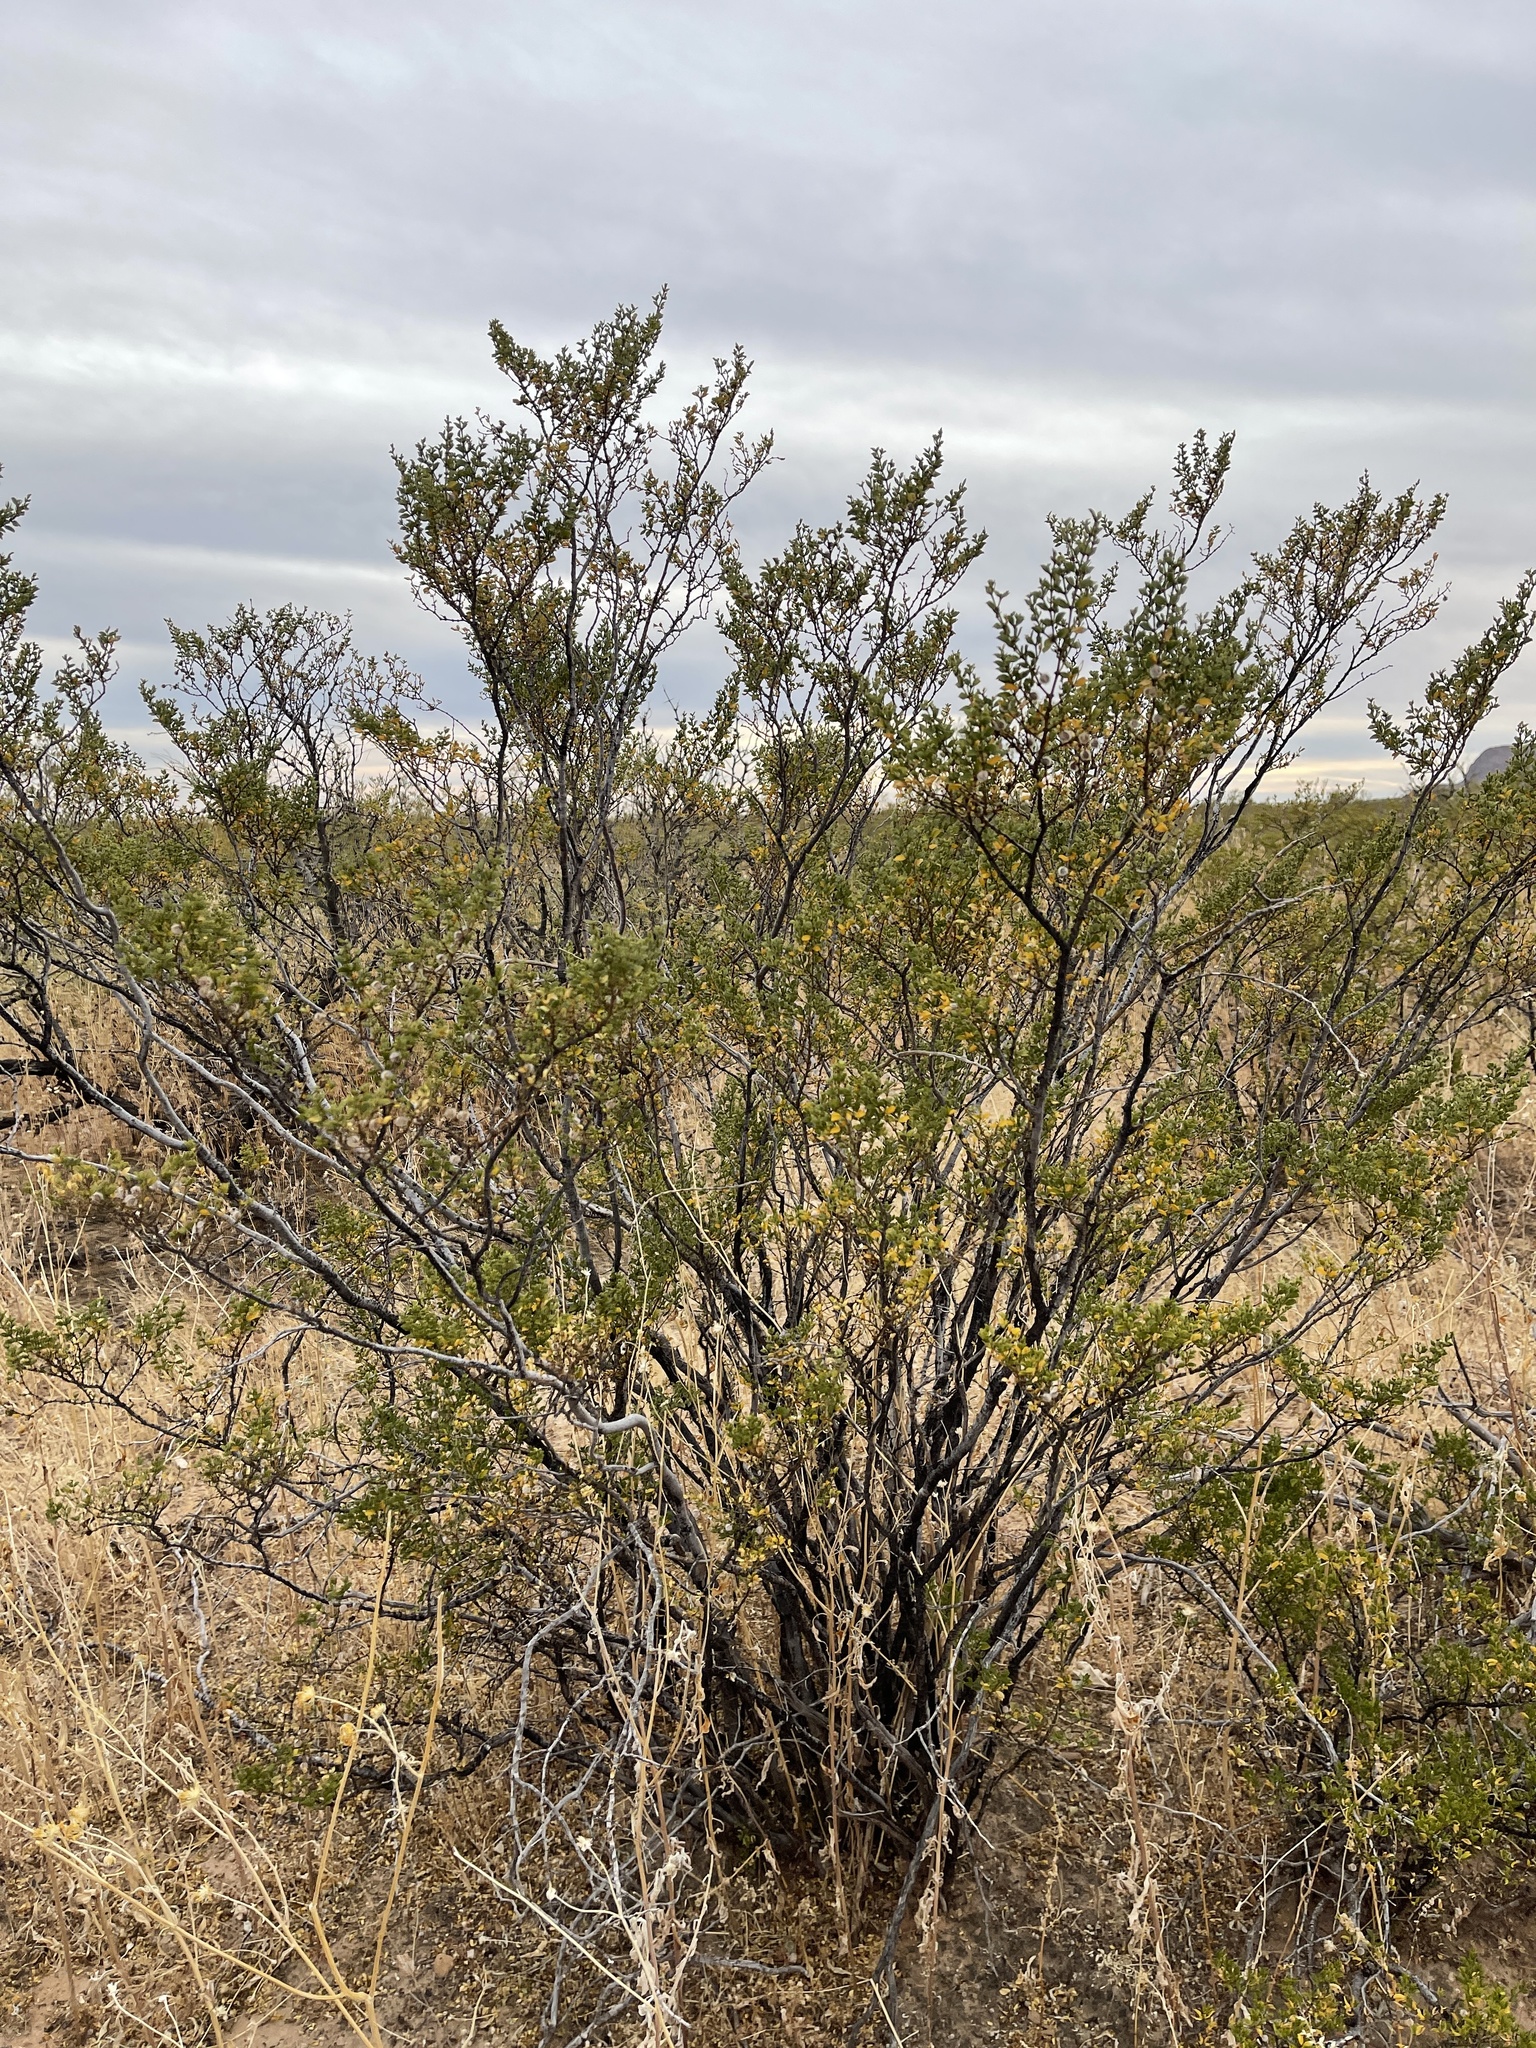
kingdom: Plantae
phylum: Tracheophyta
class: Magnoliopsida
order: Zygophyllales
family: Zygophyllaceae
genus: Larrea
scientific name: Larrea tridentata
